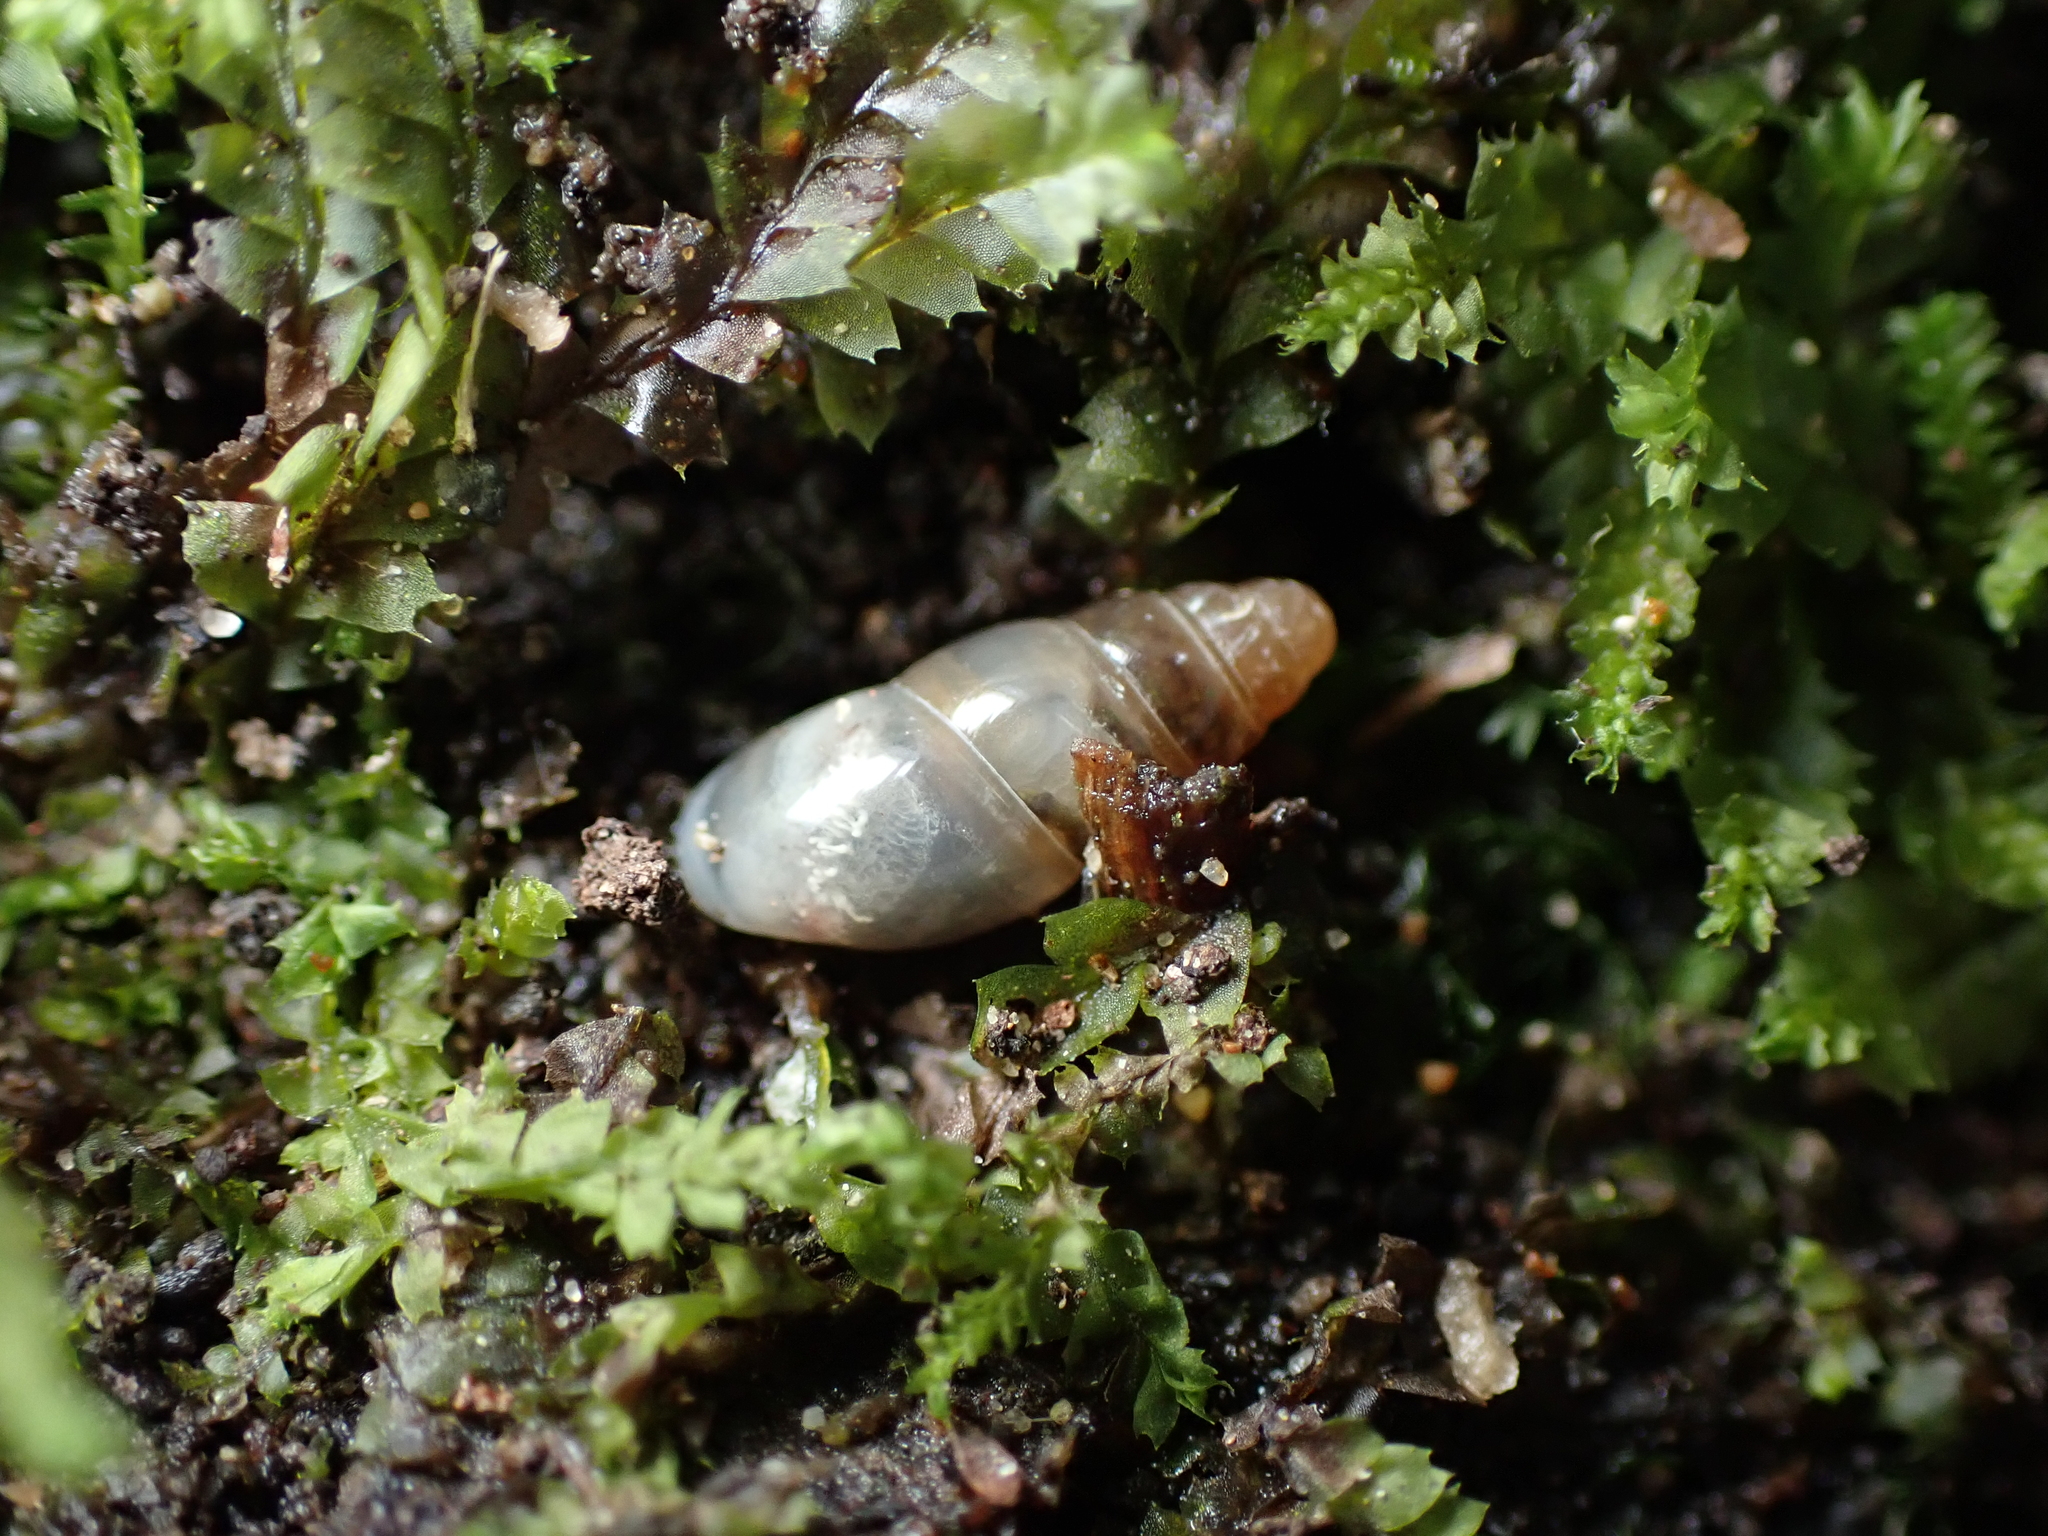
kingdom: Animalia
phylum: Mollusca
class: Gastropoda
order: Stylommatophora
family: Cochlicopidae
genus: Cochlicopa
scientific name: Cochlicopa lubrica
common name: Glossy pillar snail
